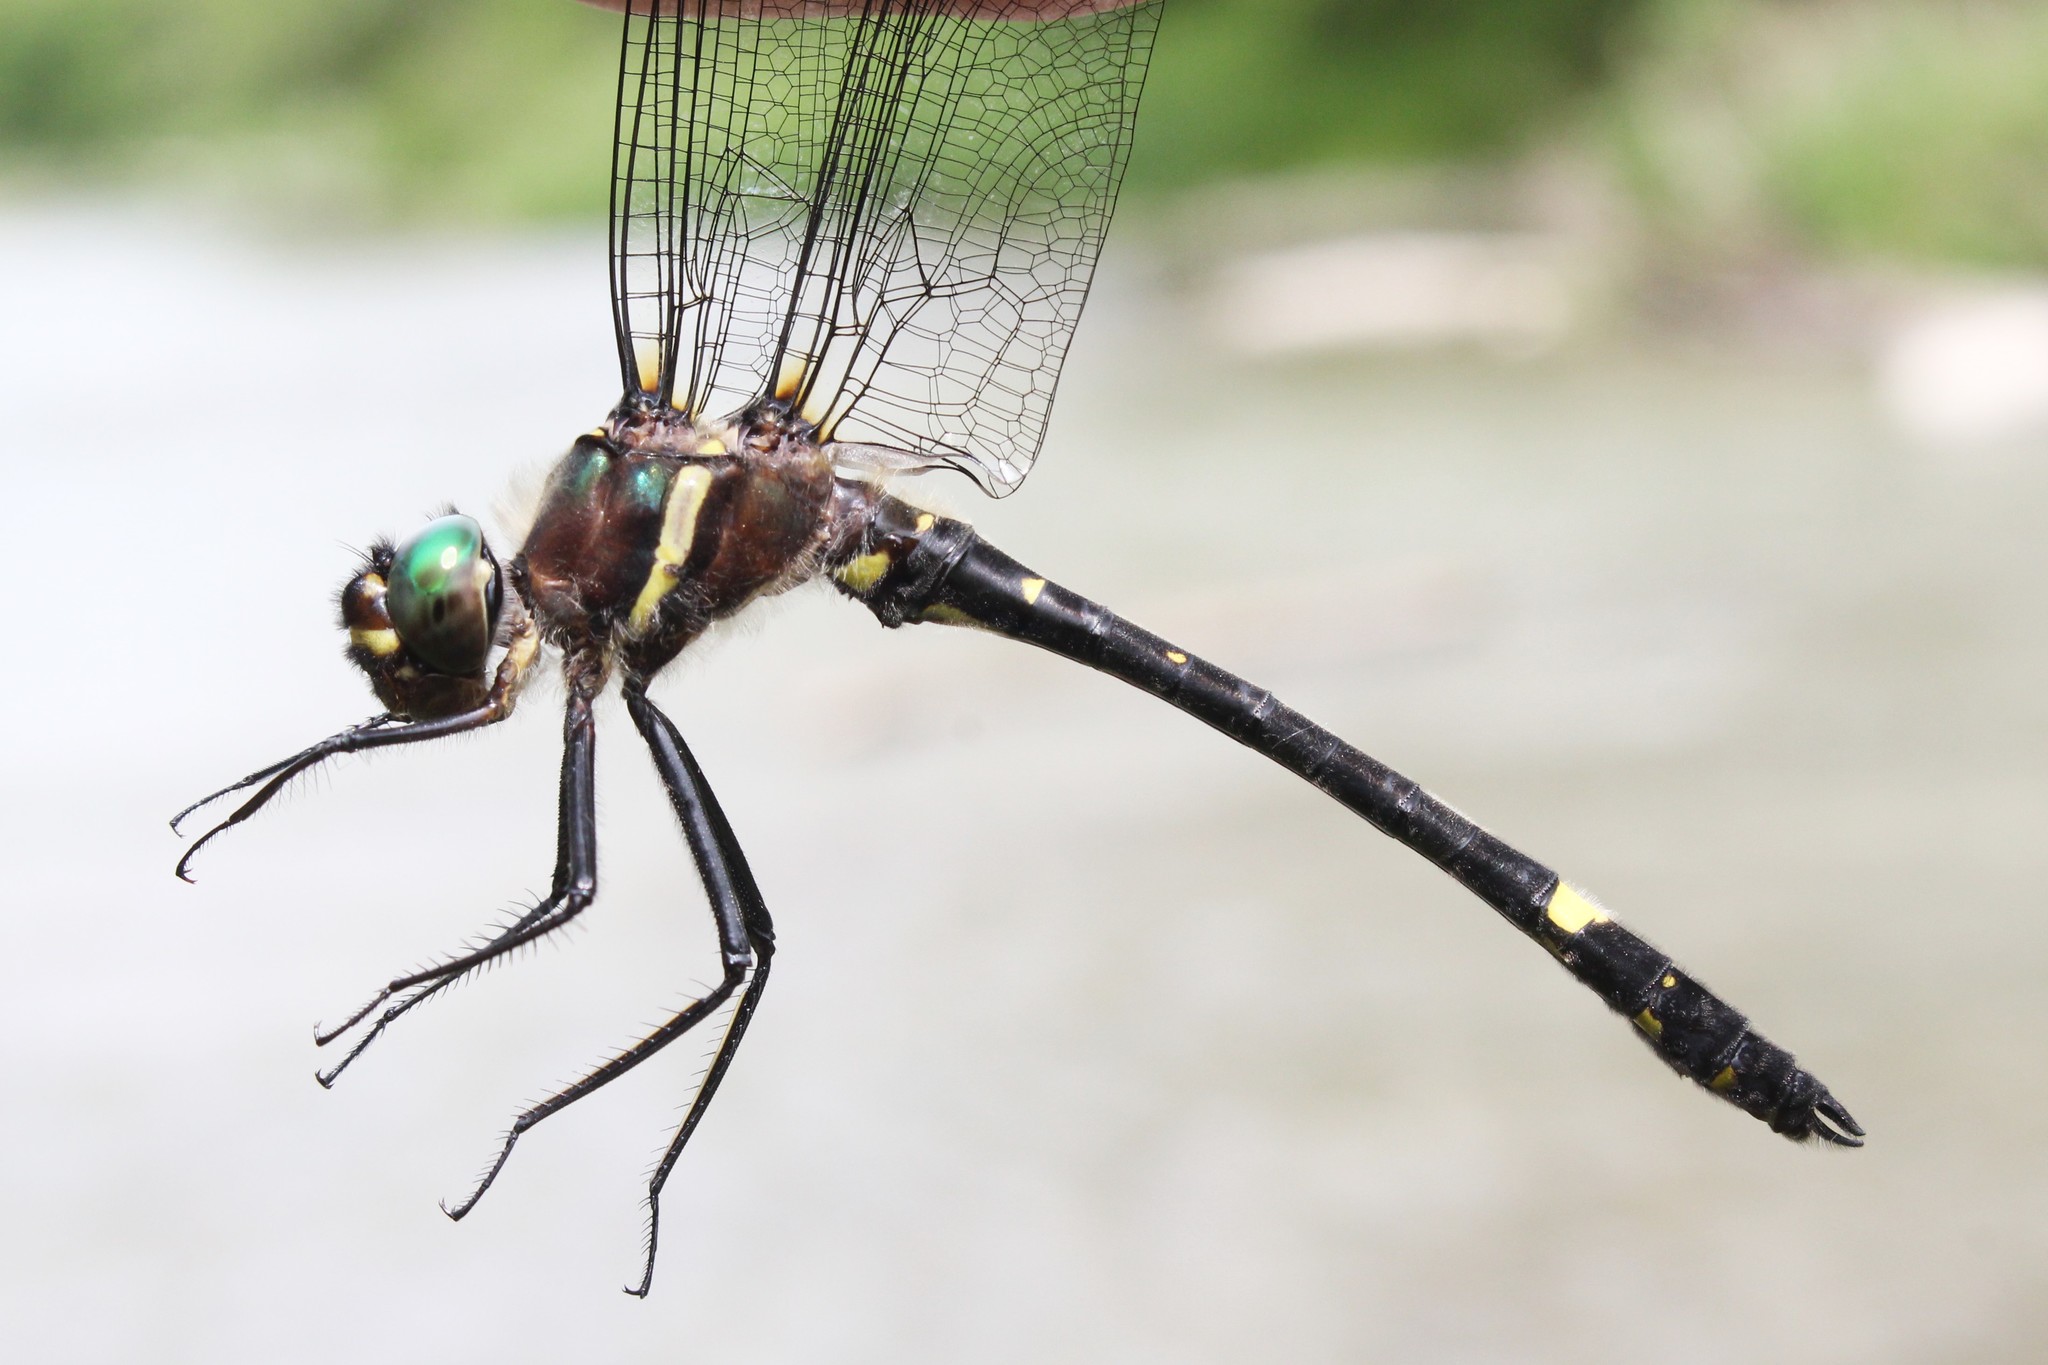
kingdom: Animalia
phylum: Arthropoda
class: Insecta
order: Odonata
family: Macromiidae
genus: Macromia
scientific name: Macromia illinoiensis
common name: Swift river cruiser
